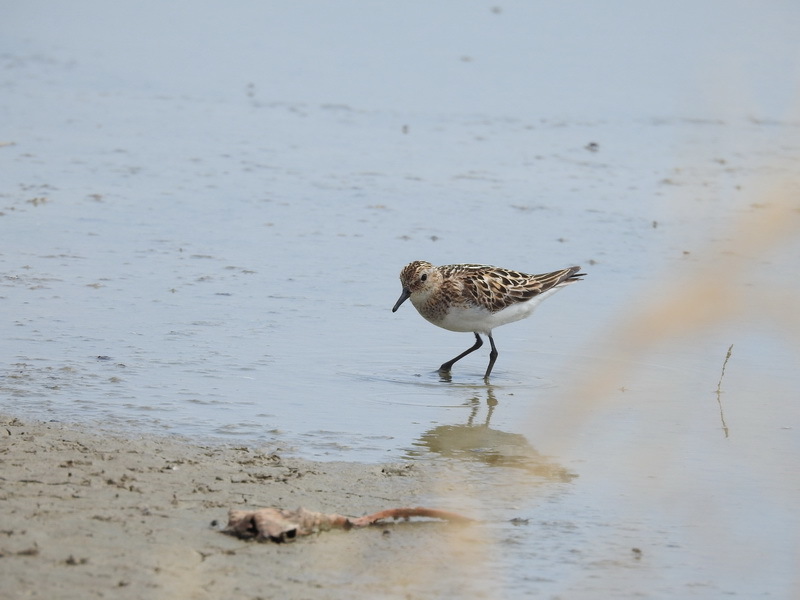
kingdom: Animalia
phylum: Chordata
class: Aves
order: Charadriiformes
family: Scolopacidae
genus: Calidris
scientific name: Calidris minuta
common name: Little stint
